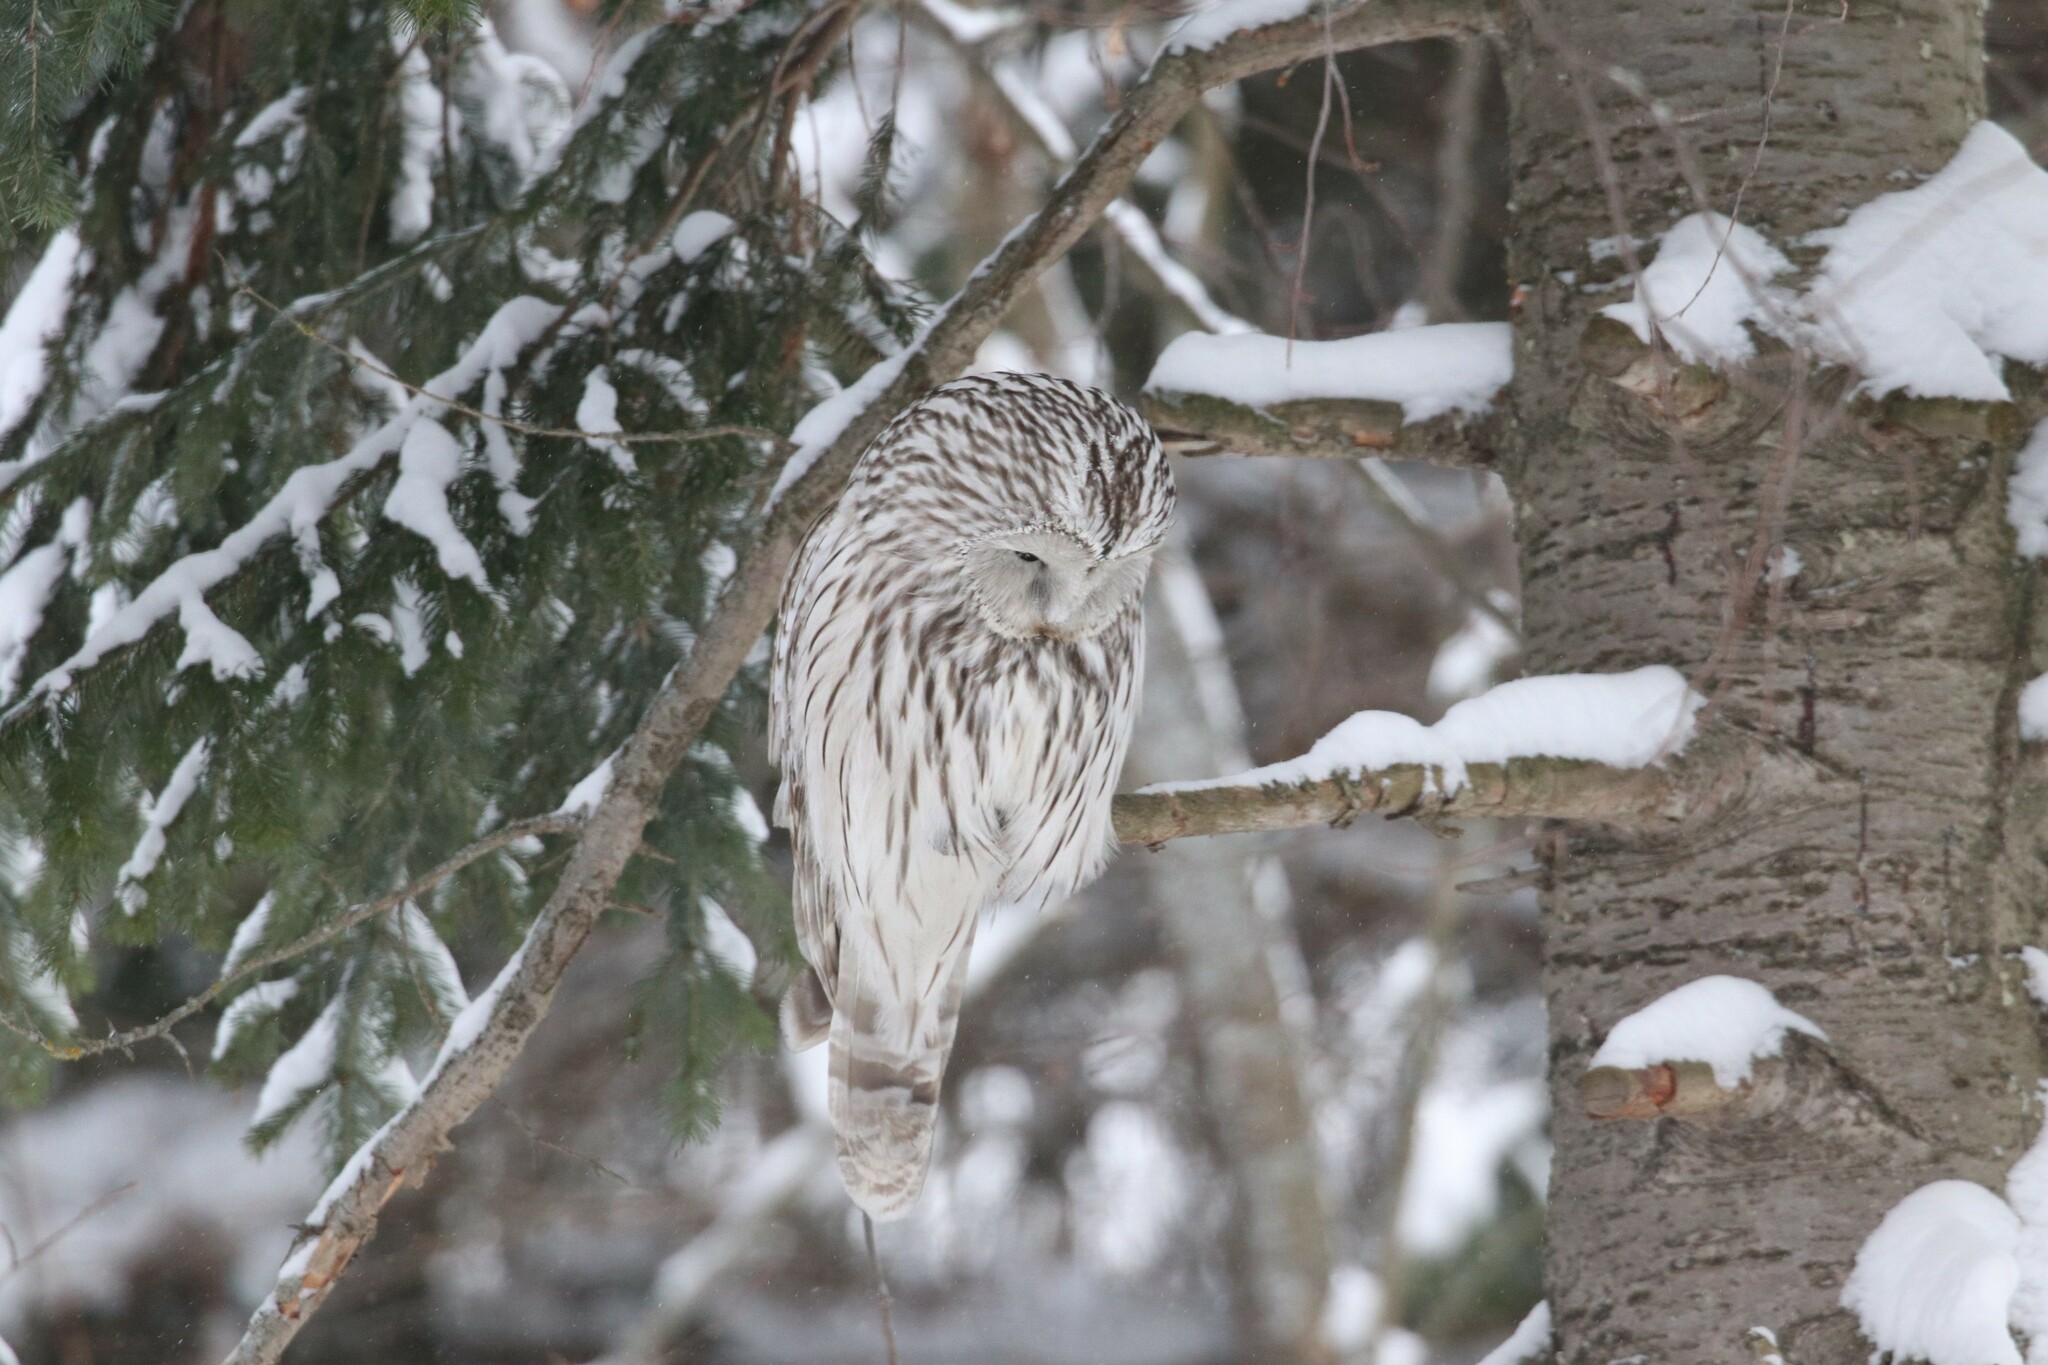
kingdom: Animalia
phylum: Chordata
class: Aves
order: Strigiformes
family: Strigidae
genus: Strix
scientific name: Strix uralensis
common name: Ural owl
